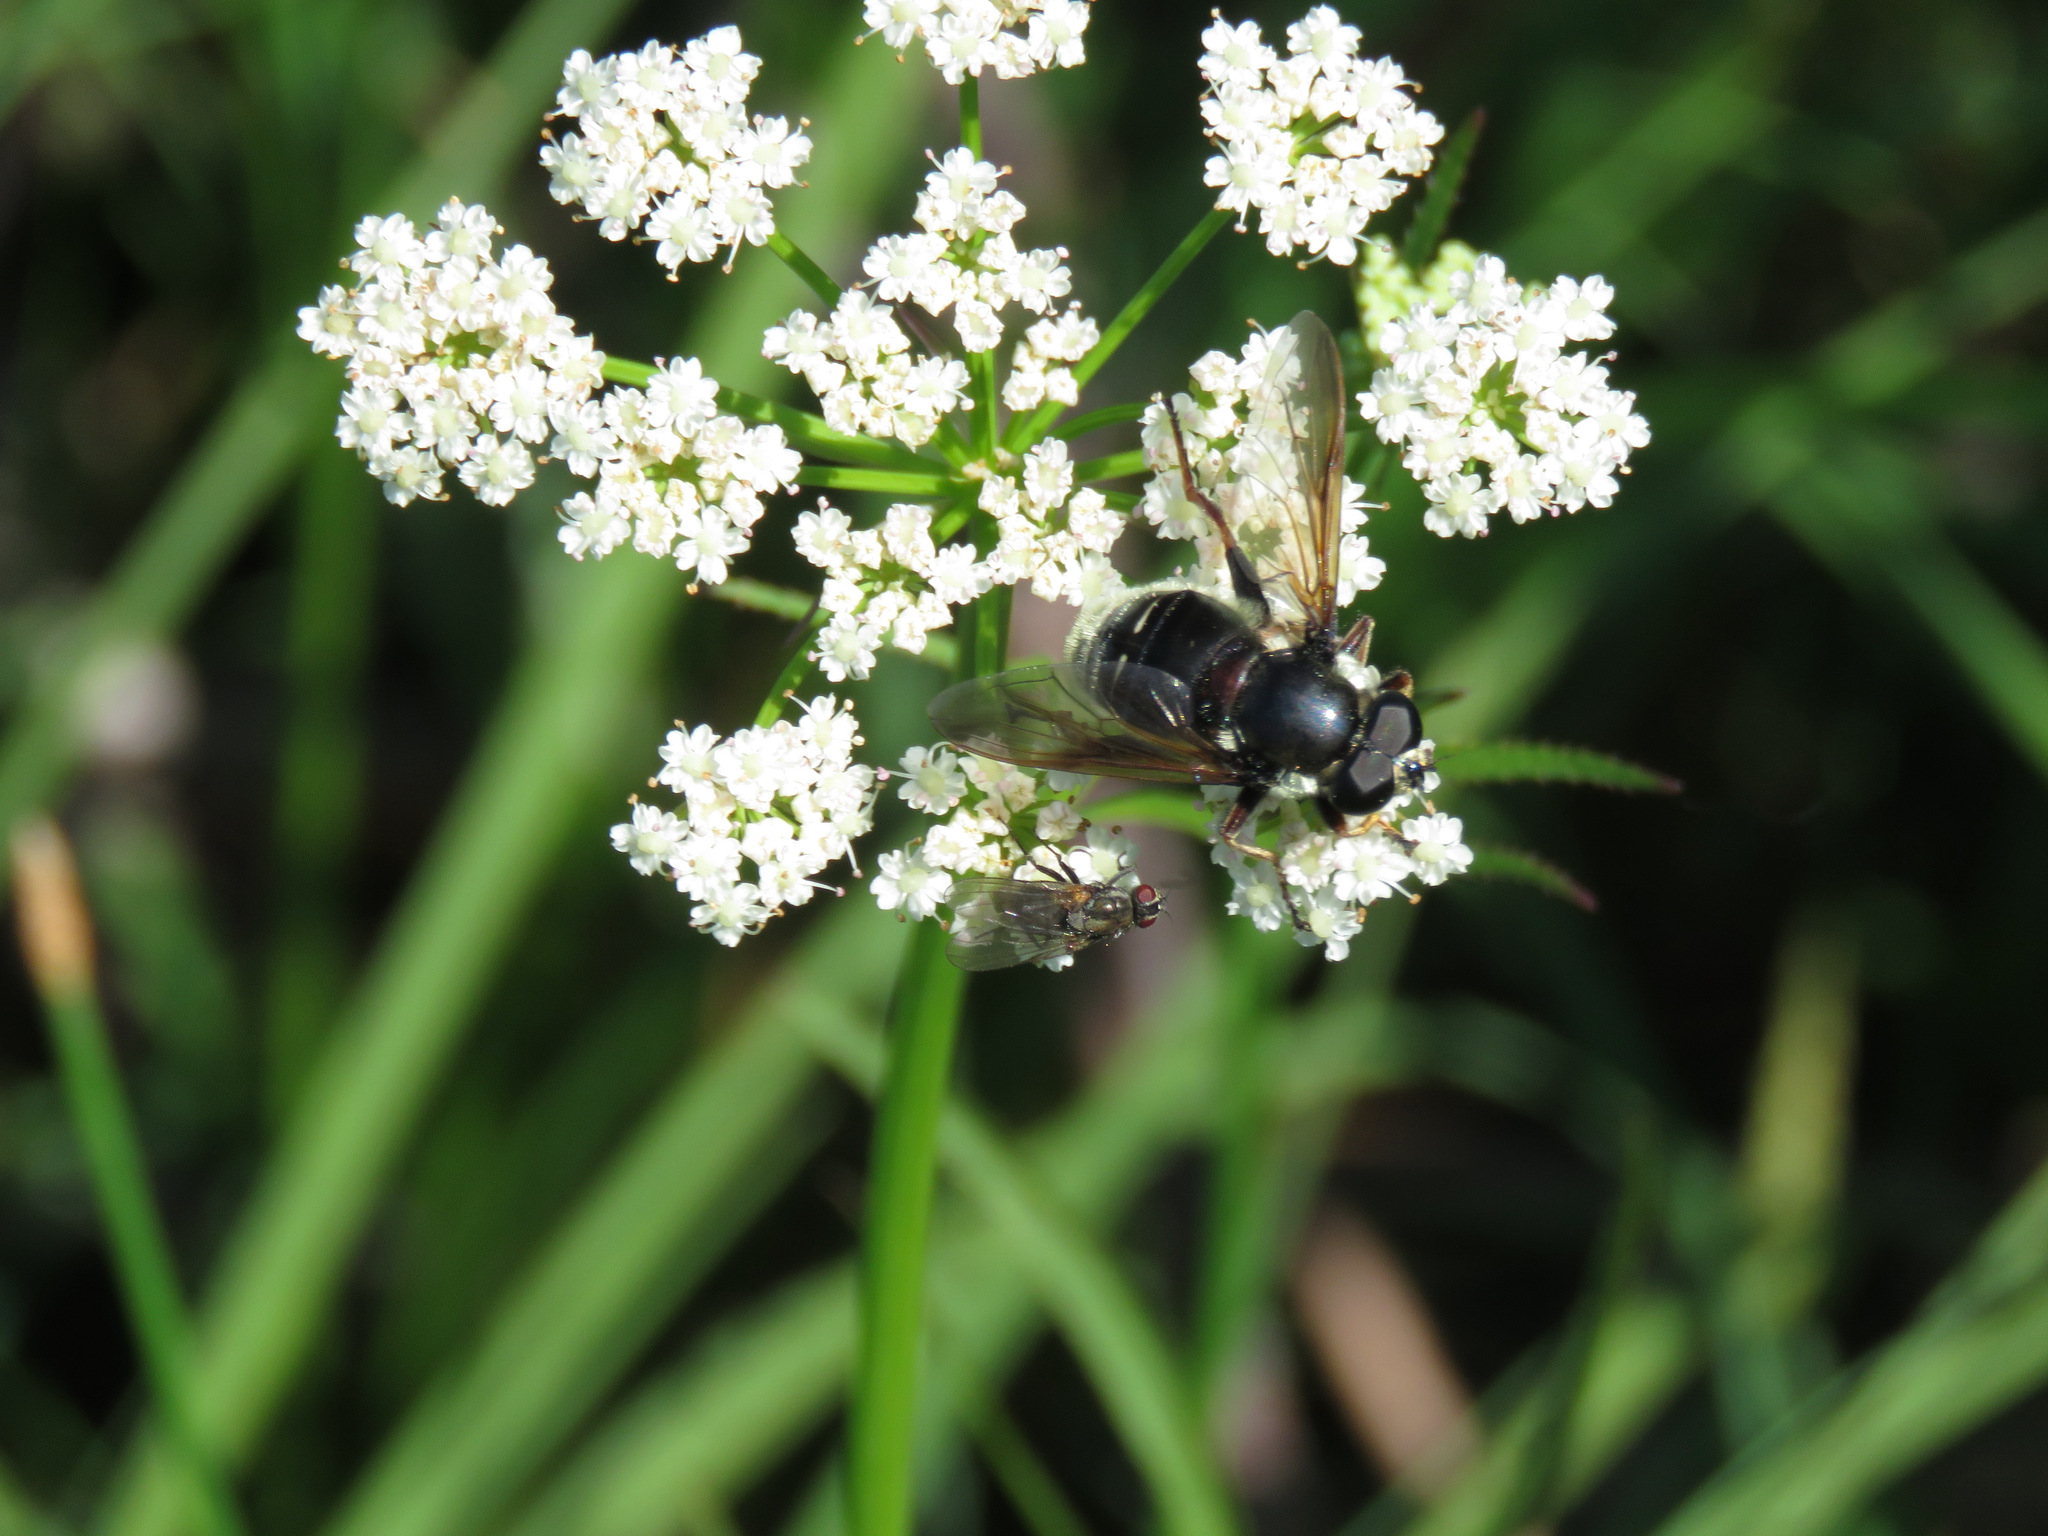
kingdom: Animalia
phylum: Arthropoda
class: Insecta
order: Diptera
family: Syrphidae
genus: Sericomyia
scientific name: Sericomyia militaris
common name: Narrow-banded pond fly
